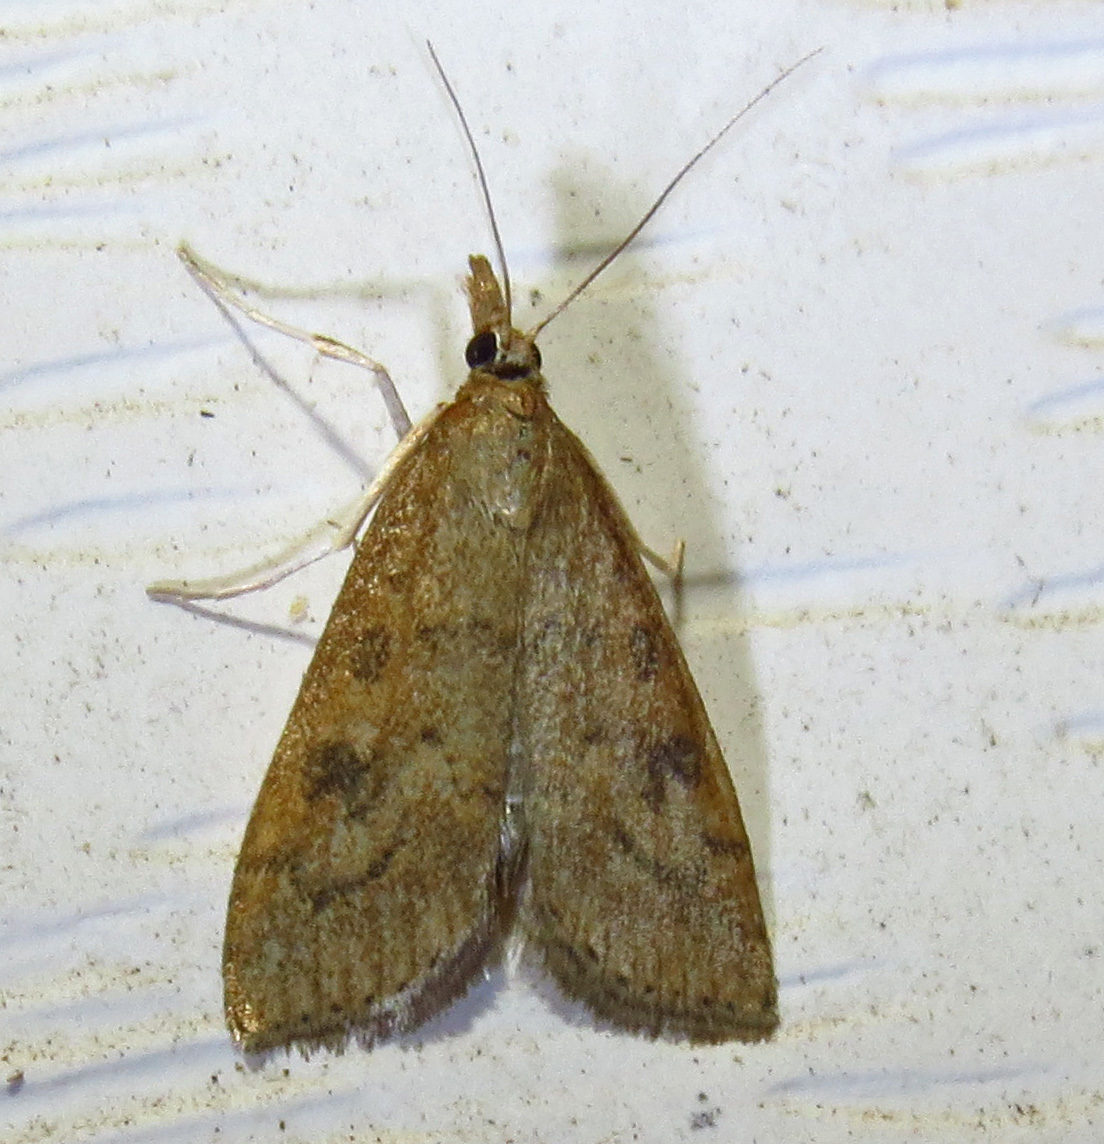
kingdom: Animalia
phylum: Arthropoda
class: Insecta
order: Lepidoptera
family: Crambidae
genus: Udea
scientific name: Udea rubigalis
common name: Celery leaftier moth
